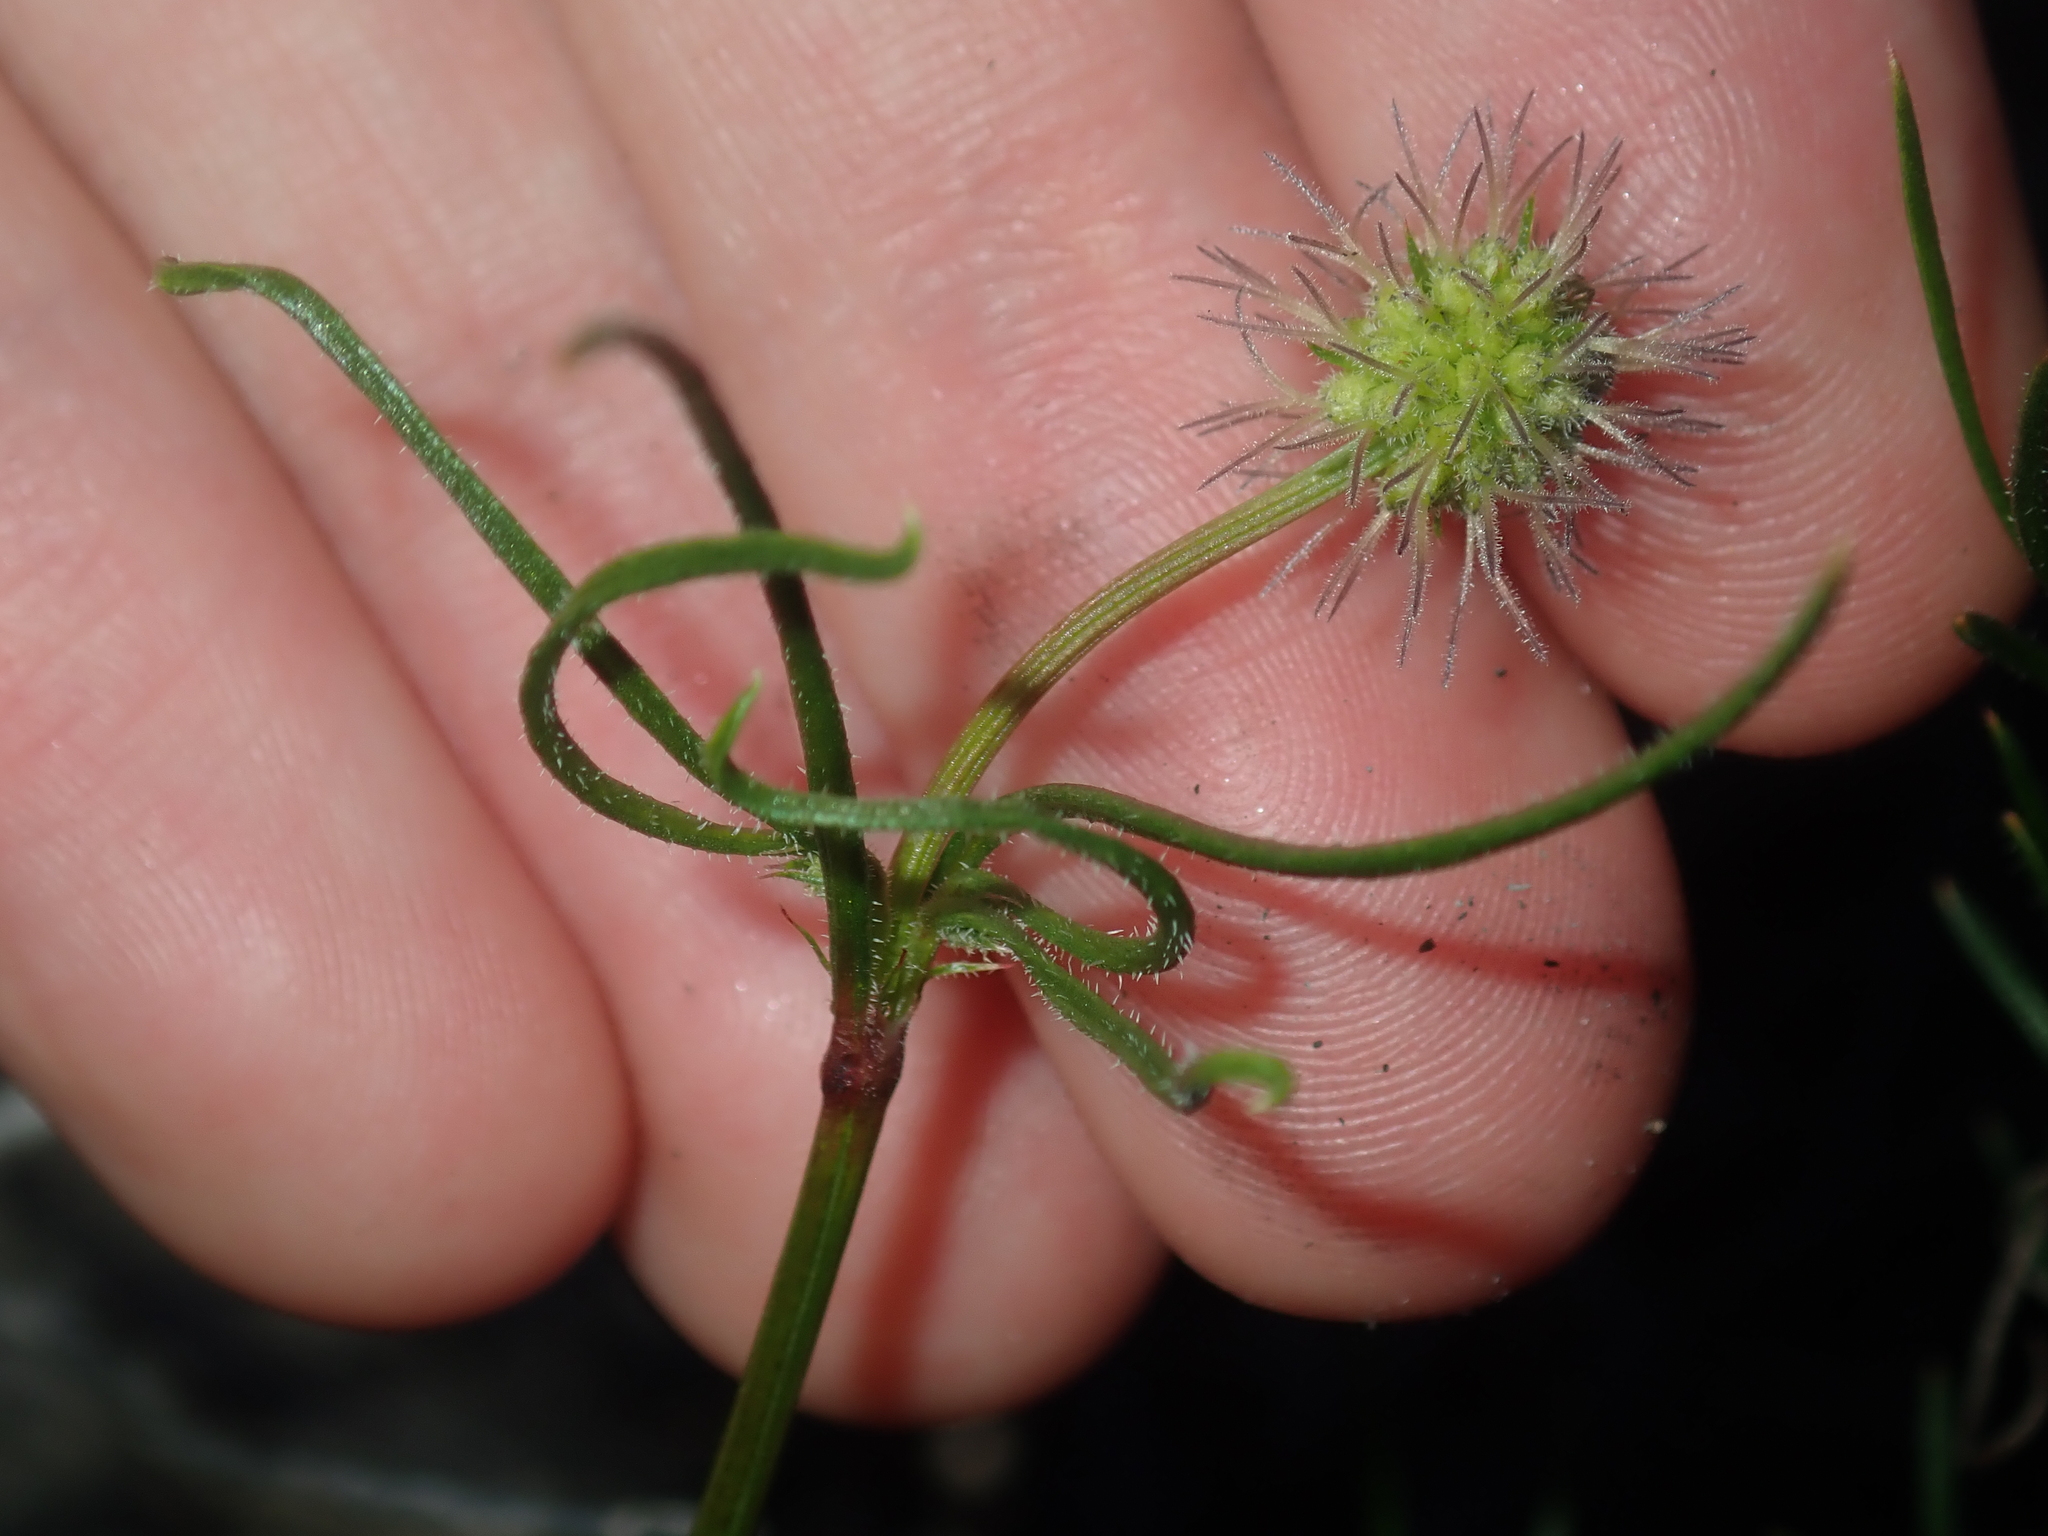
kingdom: Plantae
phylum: Tracheophyta
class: Magnoliopsida
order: Gentianales
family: Rubiaceae
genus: Opercularia
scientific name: Opercularia vaginata
